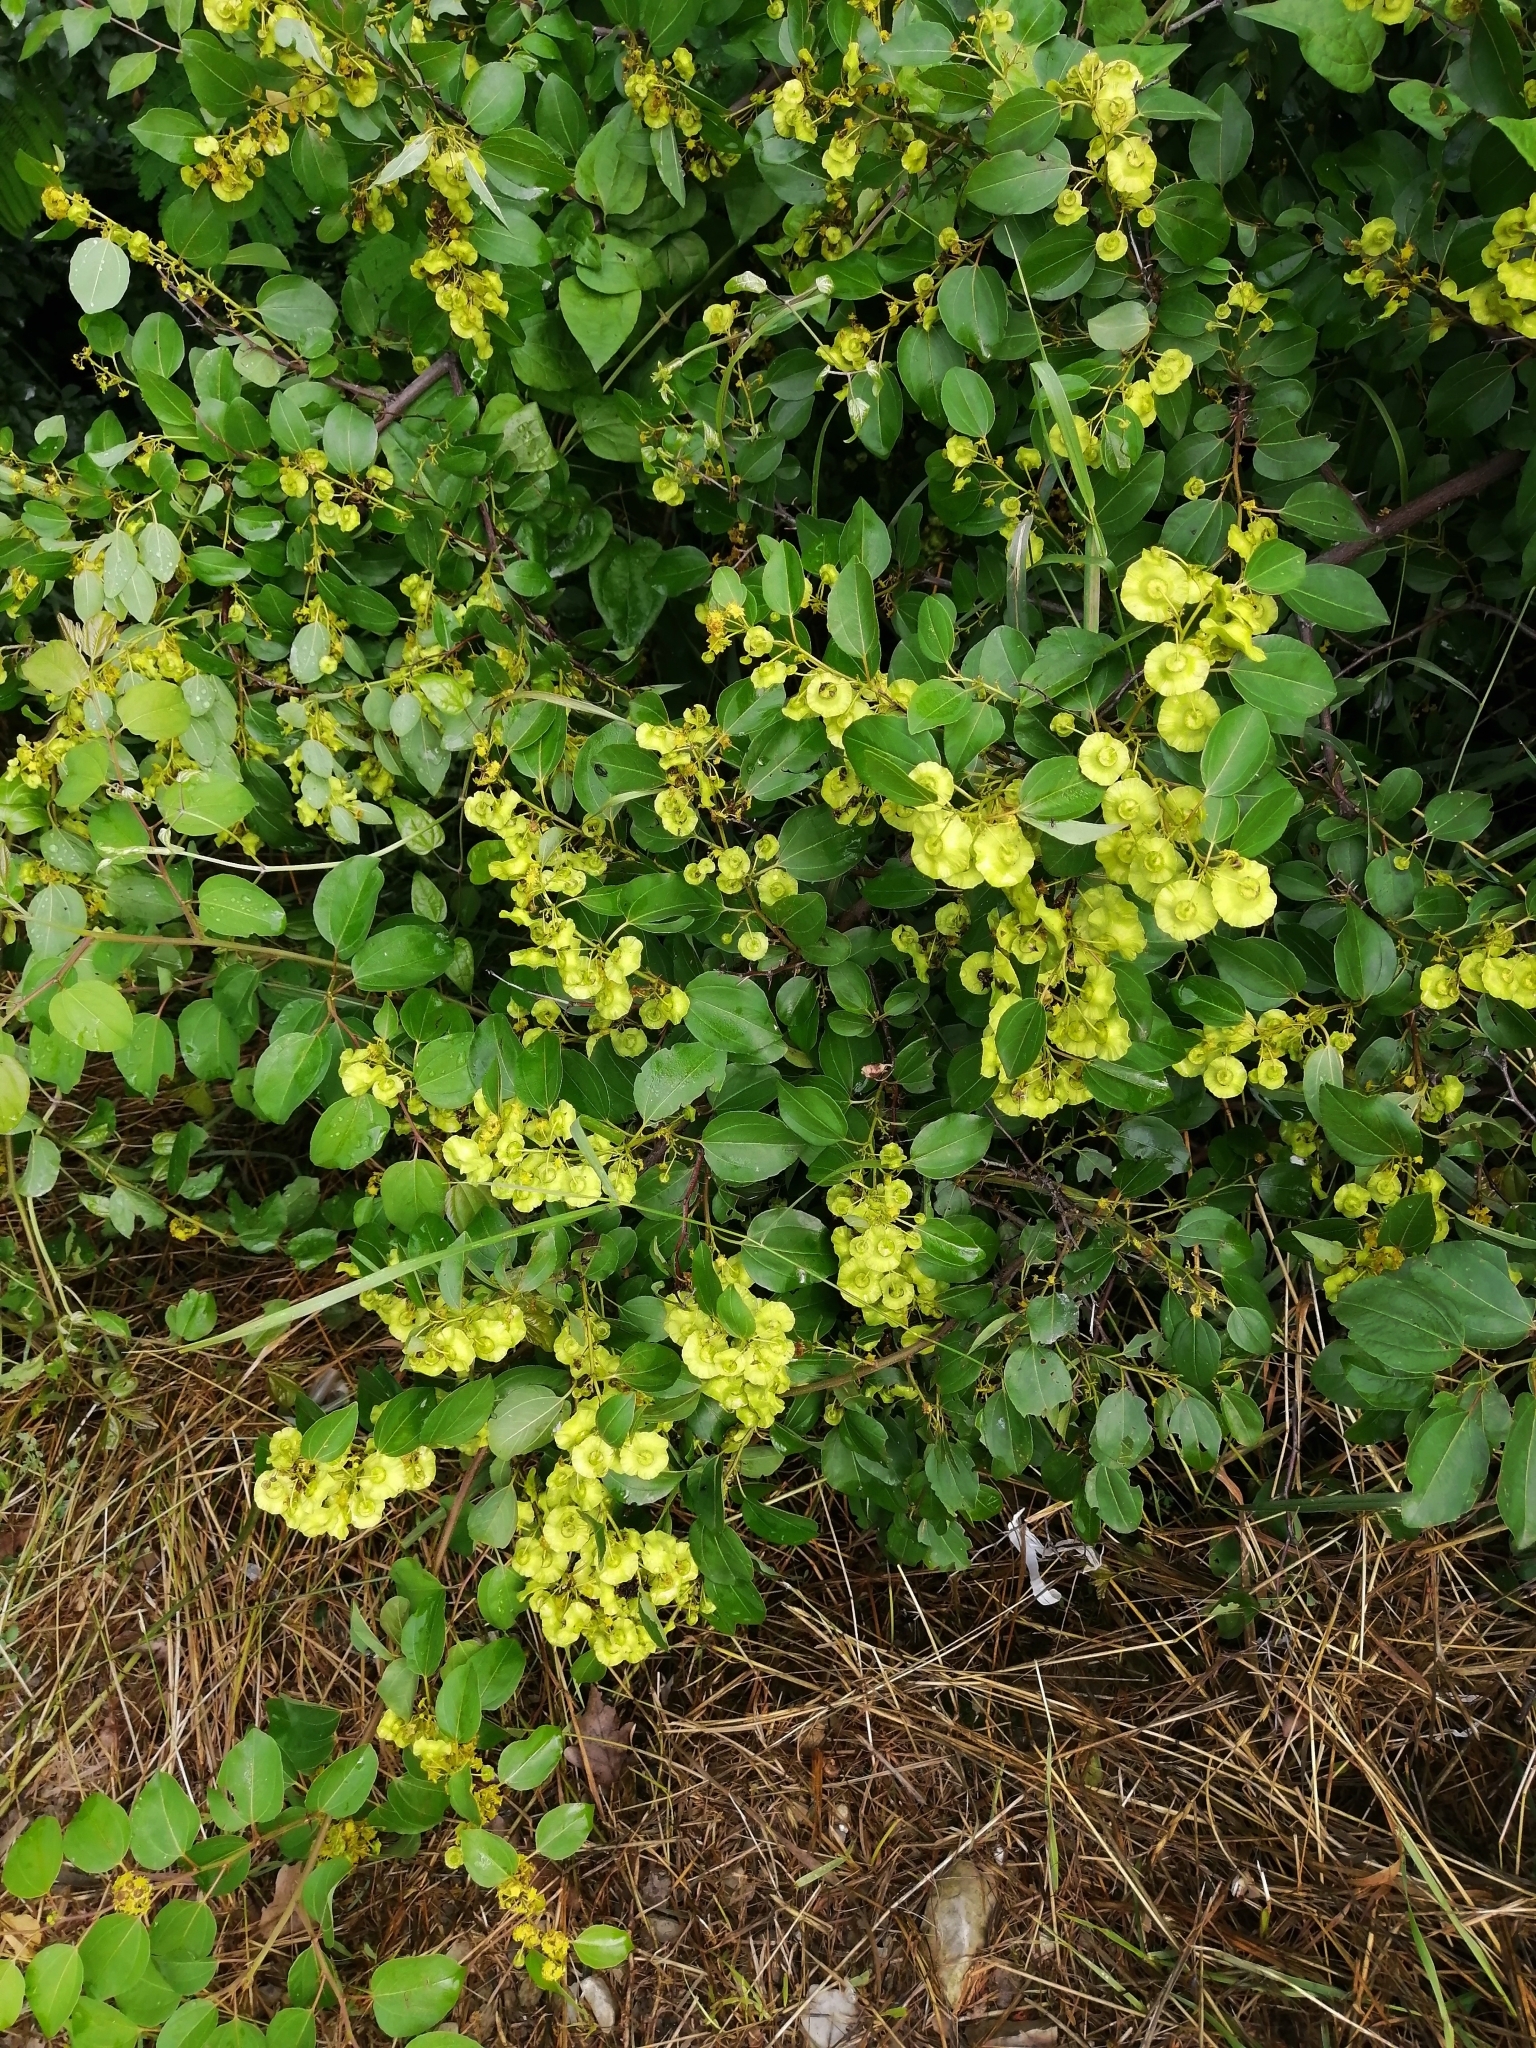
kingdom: Plantae
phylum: Tracheophyta
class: Magnoliopsida
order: Rosales
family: Rhamnaceae
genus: Paliurus
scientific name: Paliurus spina-christi
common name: Jeruselem thorn
